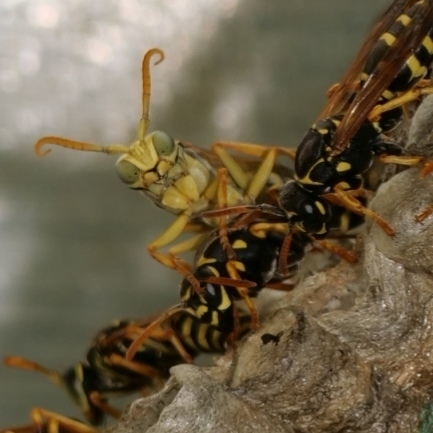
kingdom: Animalia
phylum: Arthropoda
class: Insecta
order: Hymenoptera
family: Eumenidae
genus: Polistes
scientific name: Polistes nimpha
